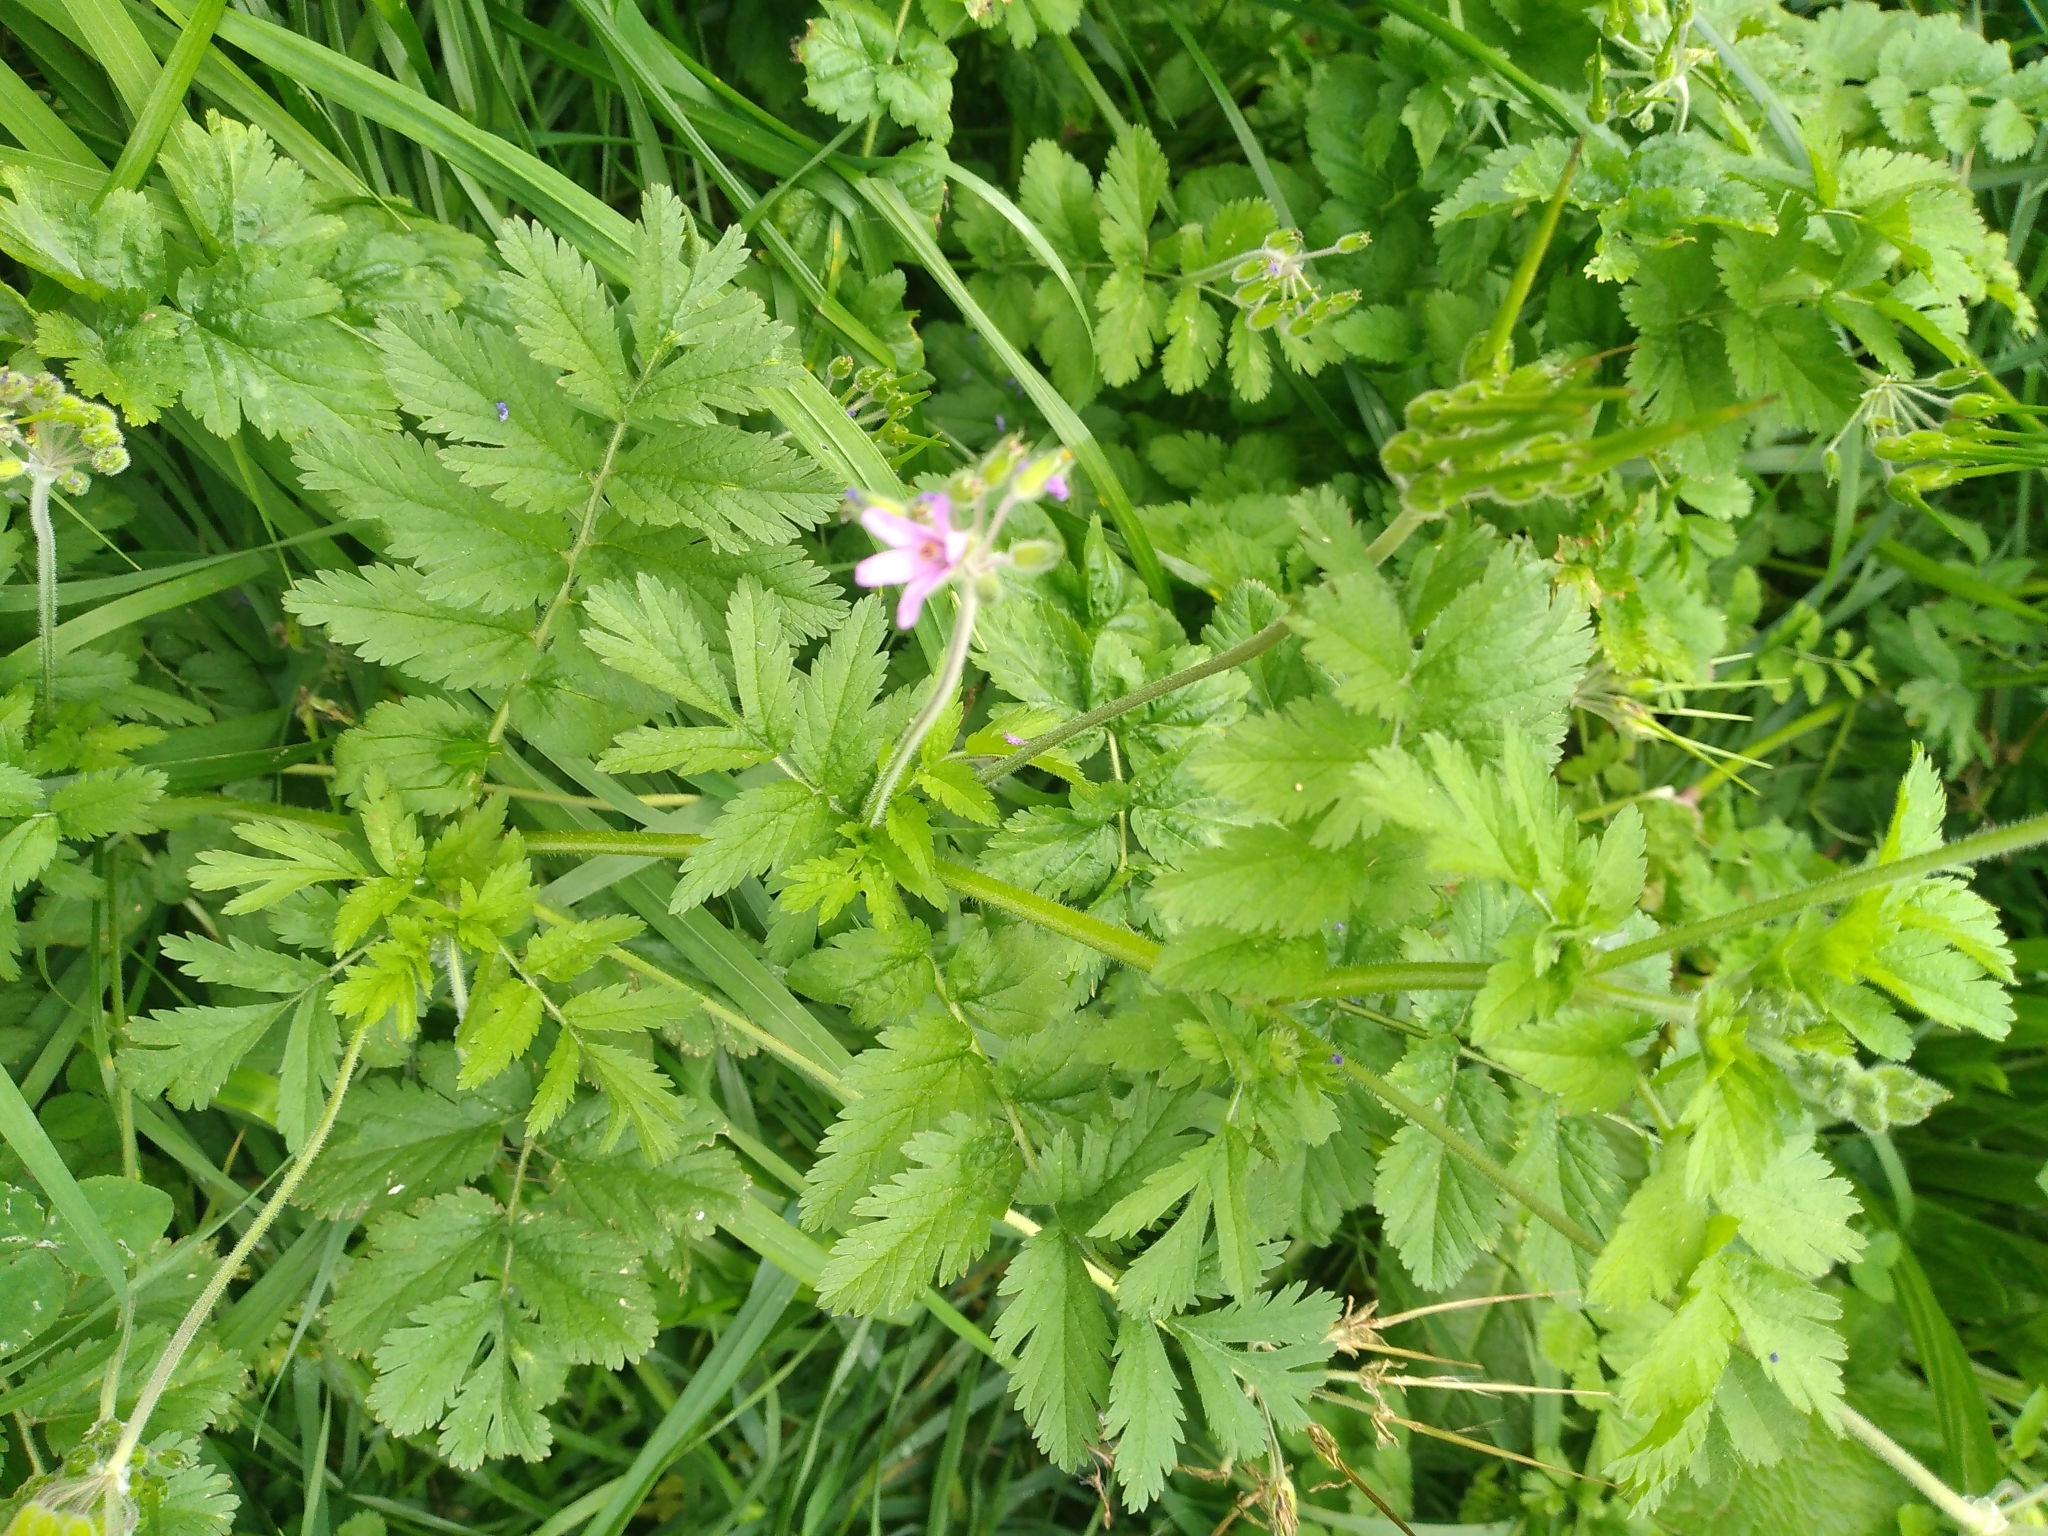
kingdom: Plantae
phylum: Tracheophyta
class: Magnoliopsida
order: Geraniales
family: Geraniaceae
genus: Erodium
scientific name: Erodium moschatum
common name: Musk stork's-bill
